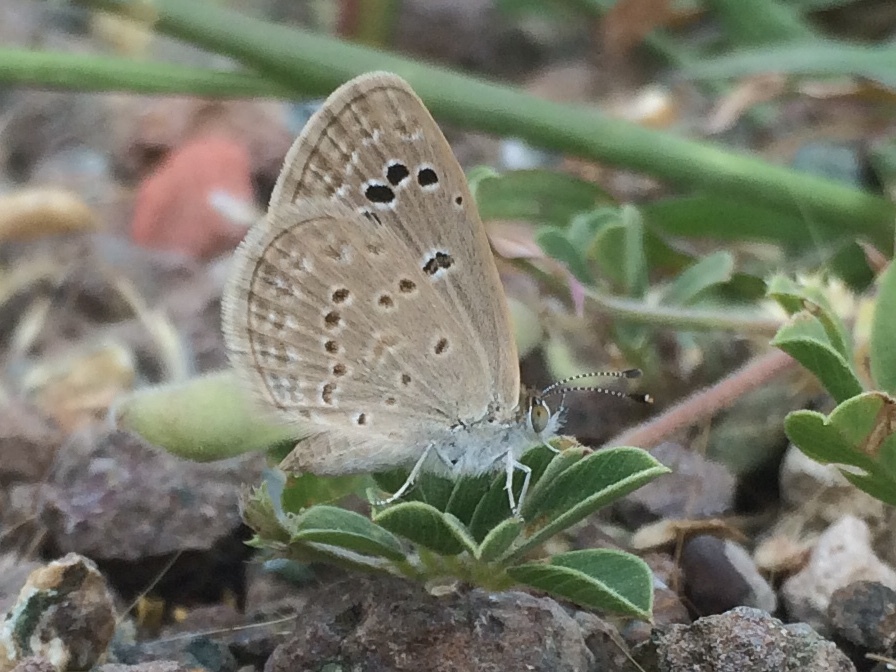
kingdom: Animalia
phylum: Arthropoda
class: Insecta
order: Lepidoptera
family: Lycaenidae
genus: Zizina
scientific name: Zizina otis
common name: Lesser grass blue
